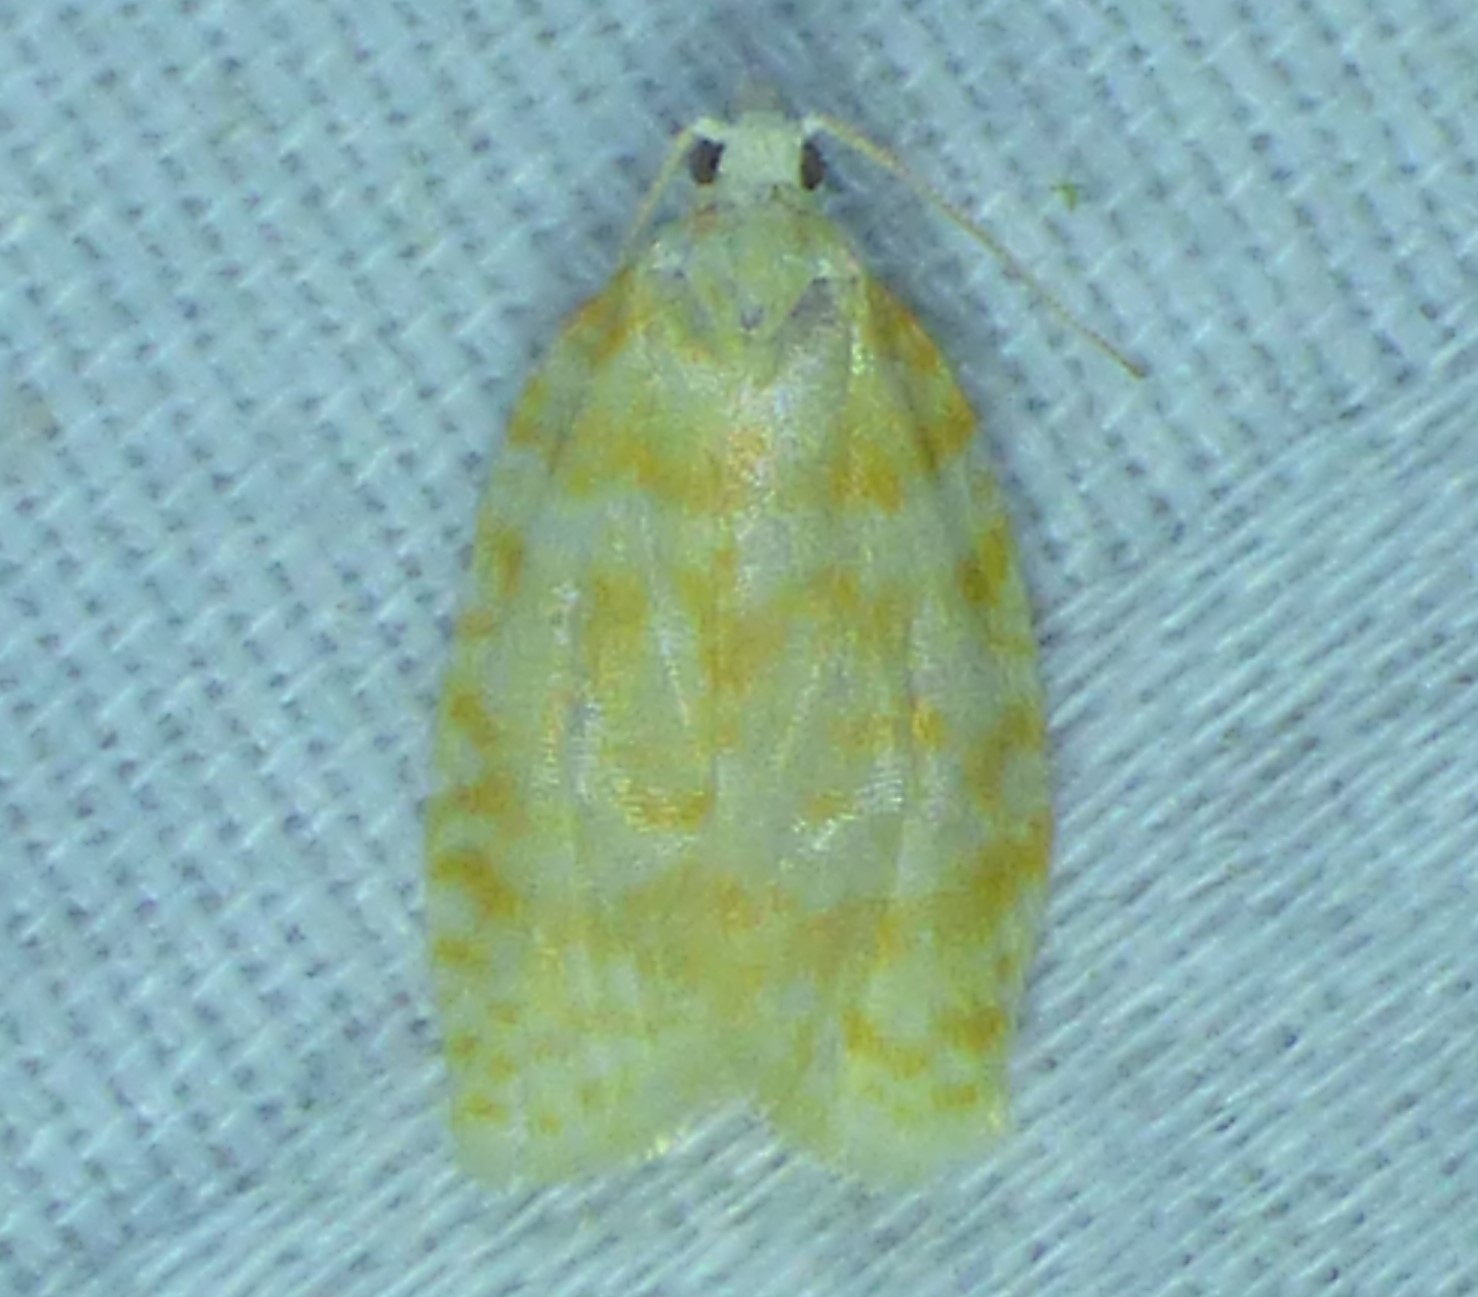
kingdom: Animalia
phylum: Arthropoda
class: Insecta
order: Lepidoptera
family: Tortricidae
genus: Acleris
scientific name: Acleris semipurpurana
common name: Oak leaftier moth
